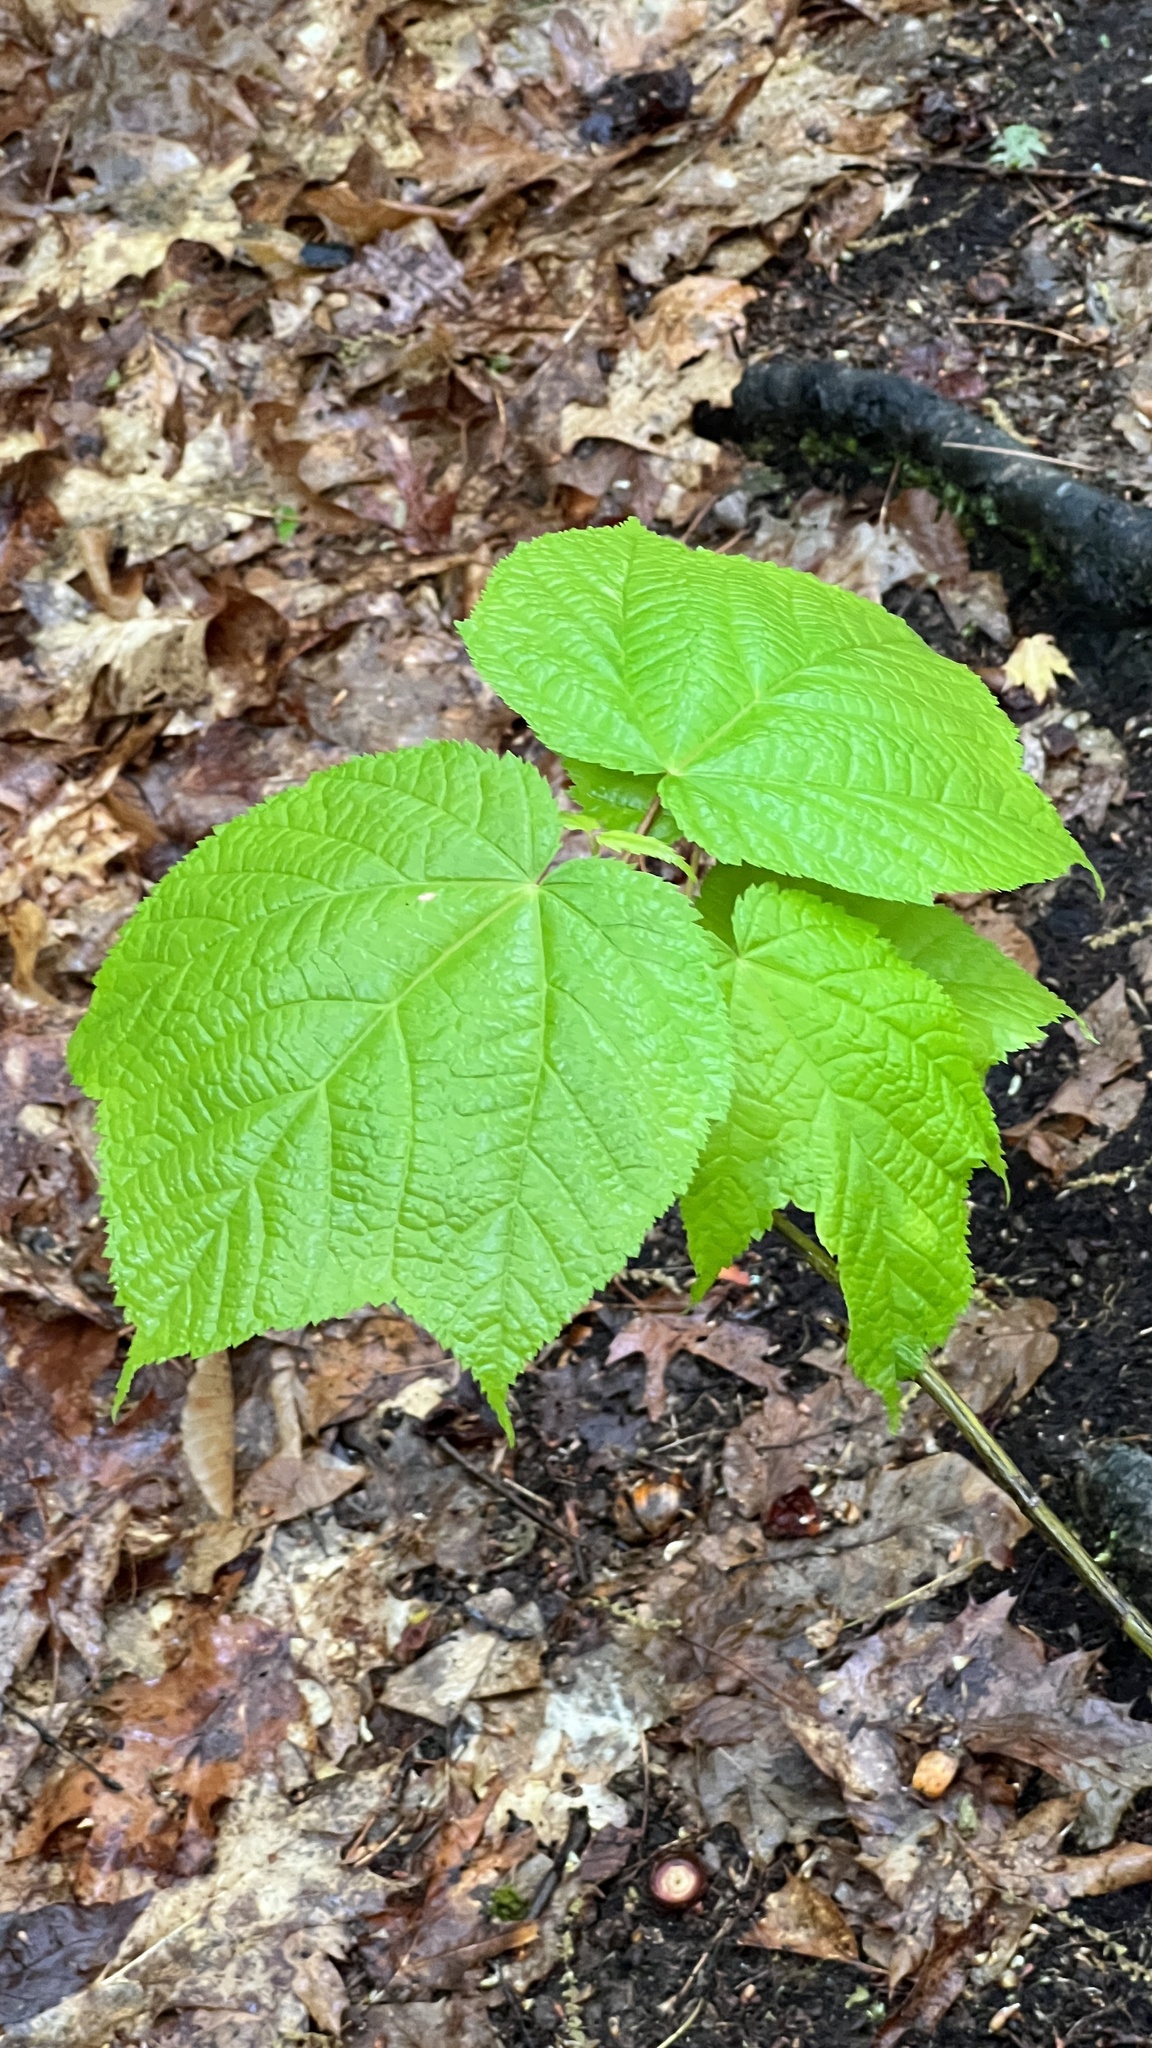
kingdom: Plantae
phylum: Tracheophyta
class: Magnoliopsida
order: Sapindales
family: Sapindaceae
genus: Acer
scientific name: Acer pensylvanicum
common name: Moosewood
